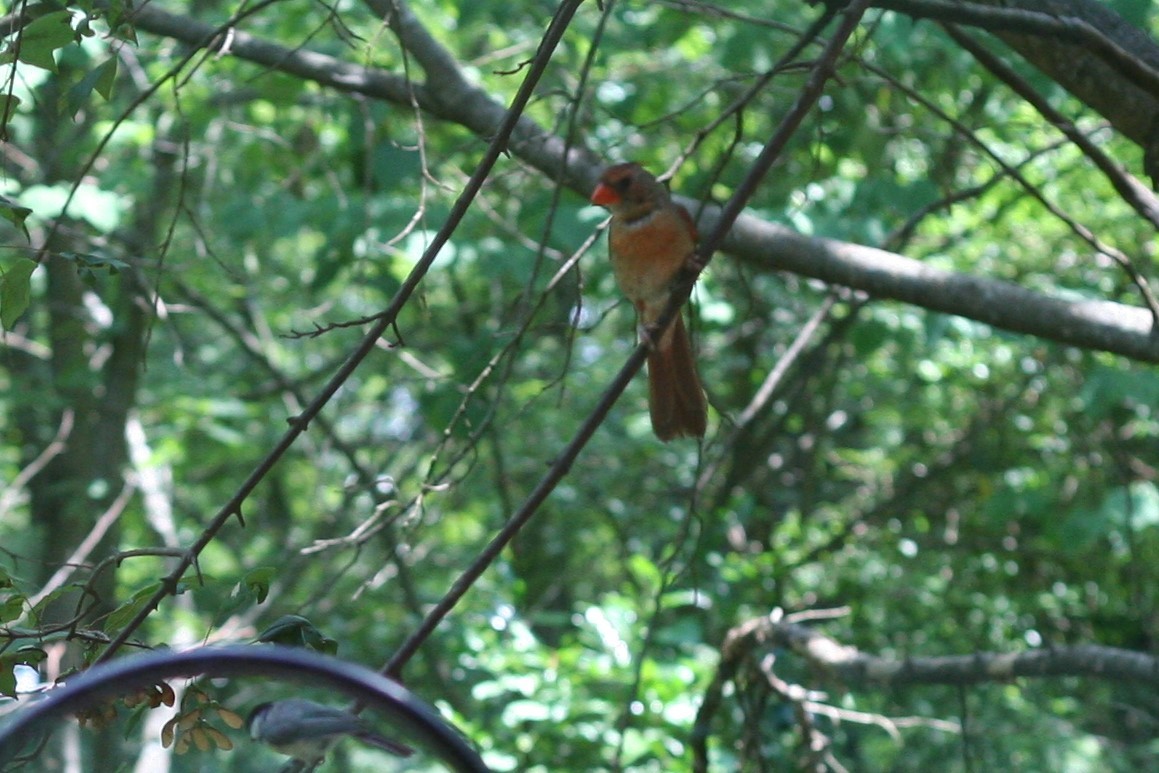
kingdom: Animalia
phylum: Chordata
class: Aves
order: Passeriformes
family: Cardinalidae
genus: Cardinalis
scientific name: Cardinalis cardinalis
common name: Northern cardinal
